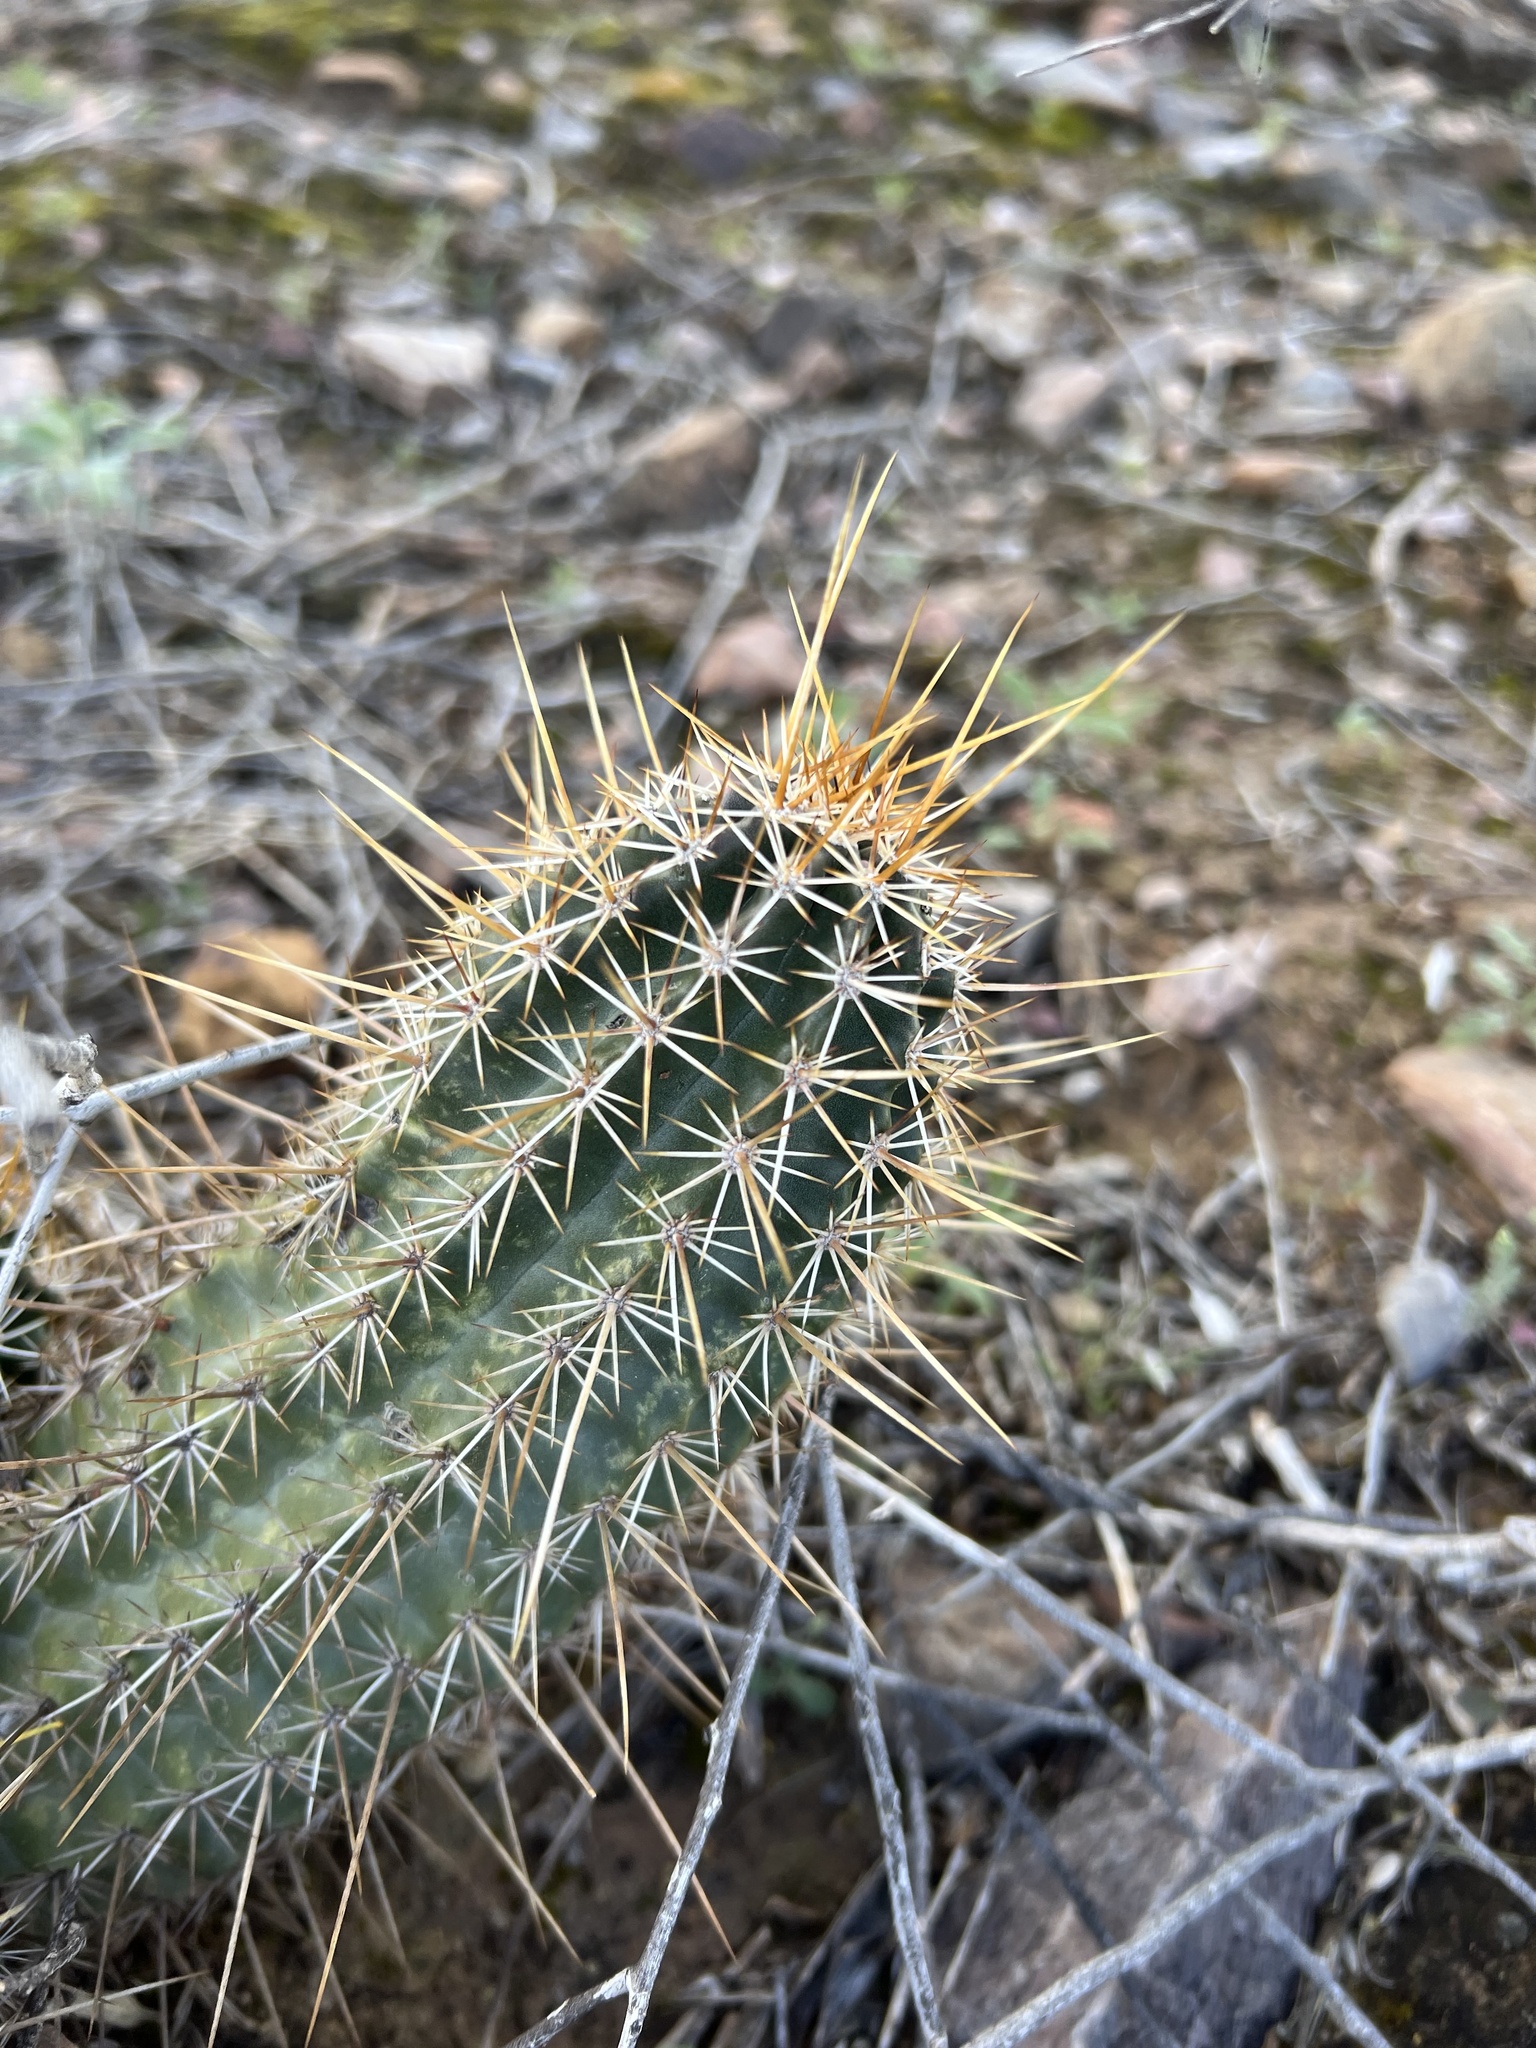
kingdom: Plantae
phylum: Tracheophyta
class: Magnoliopsida
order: Caryophyllales
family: Cactaceae
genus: Echinocereus
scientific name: Echinocereus fasciculatus
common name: Bundle hedgehog
